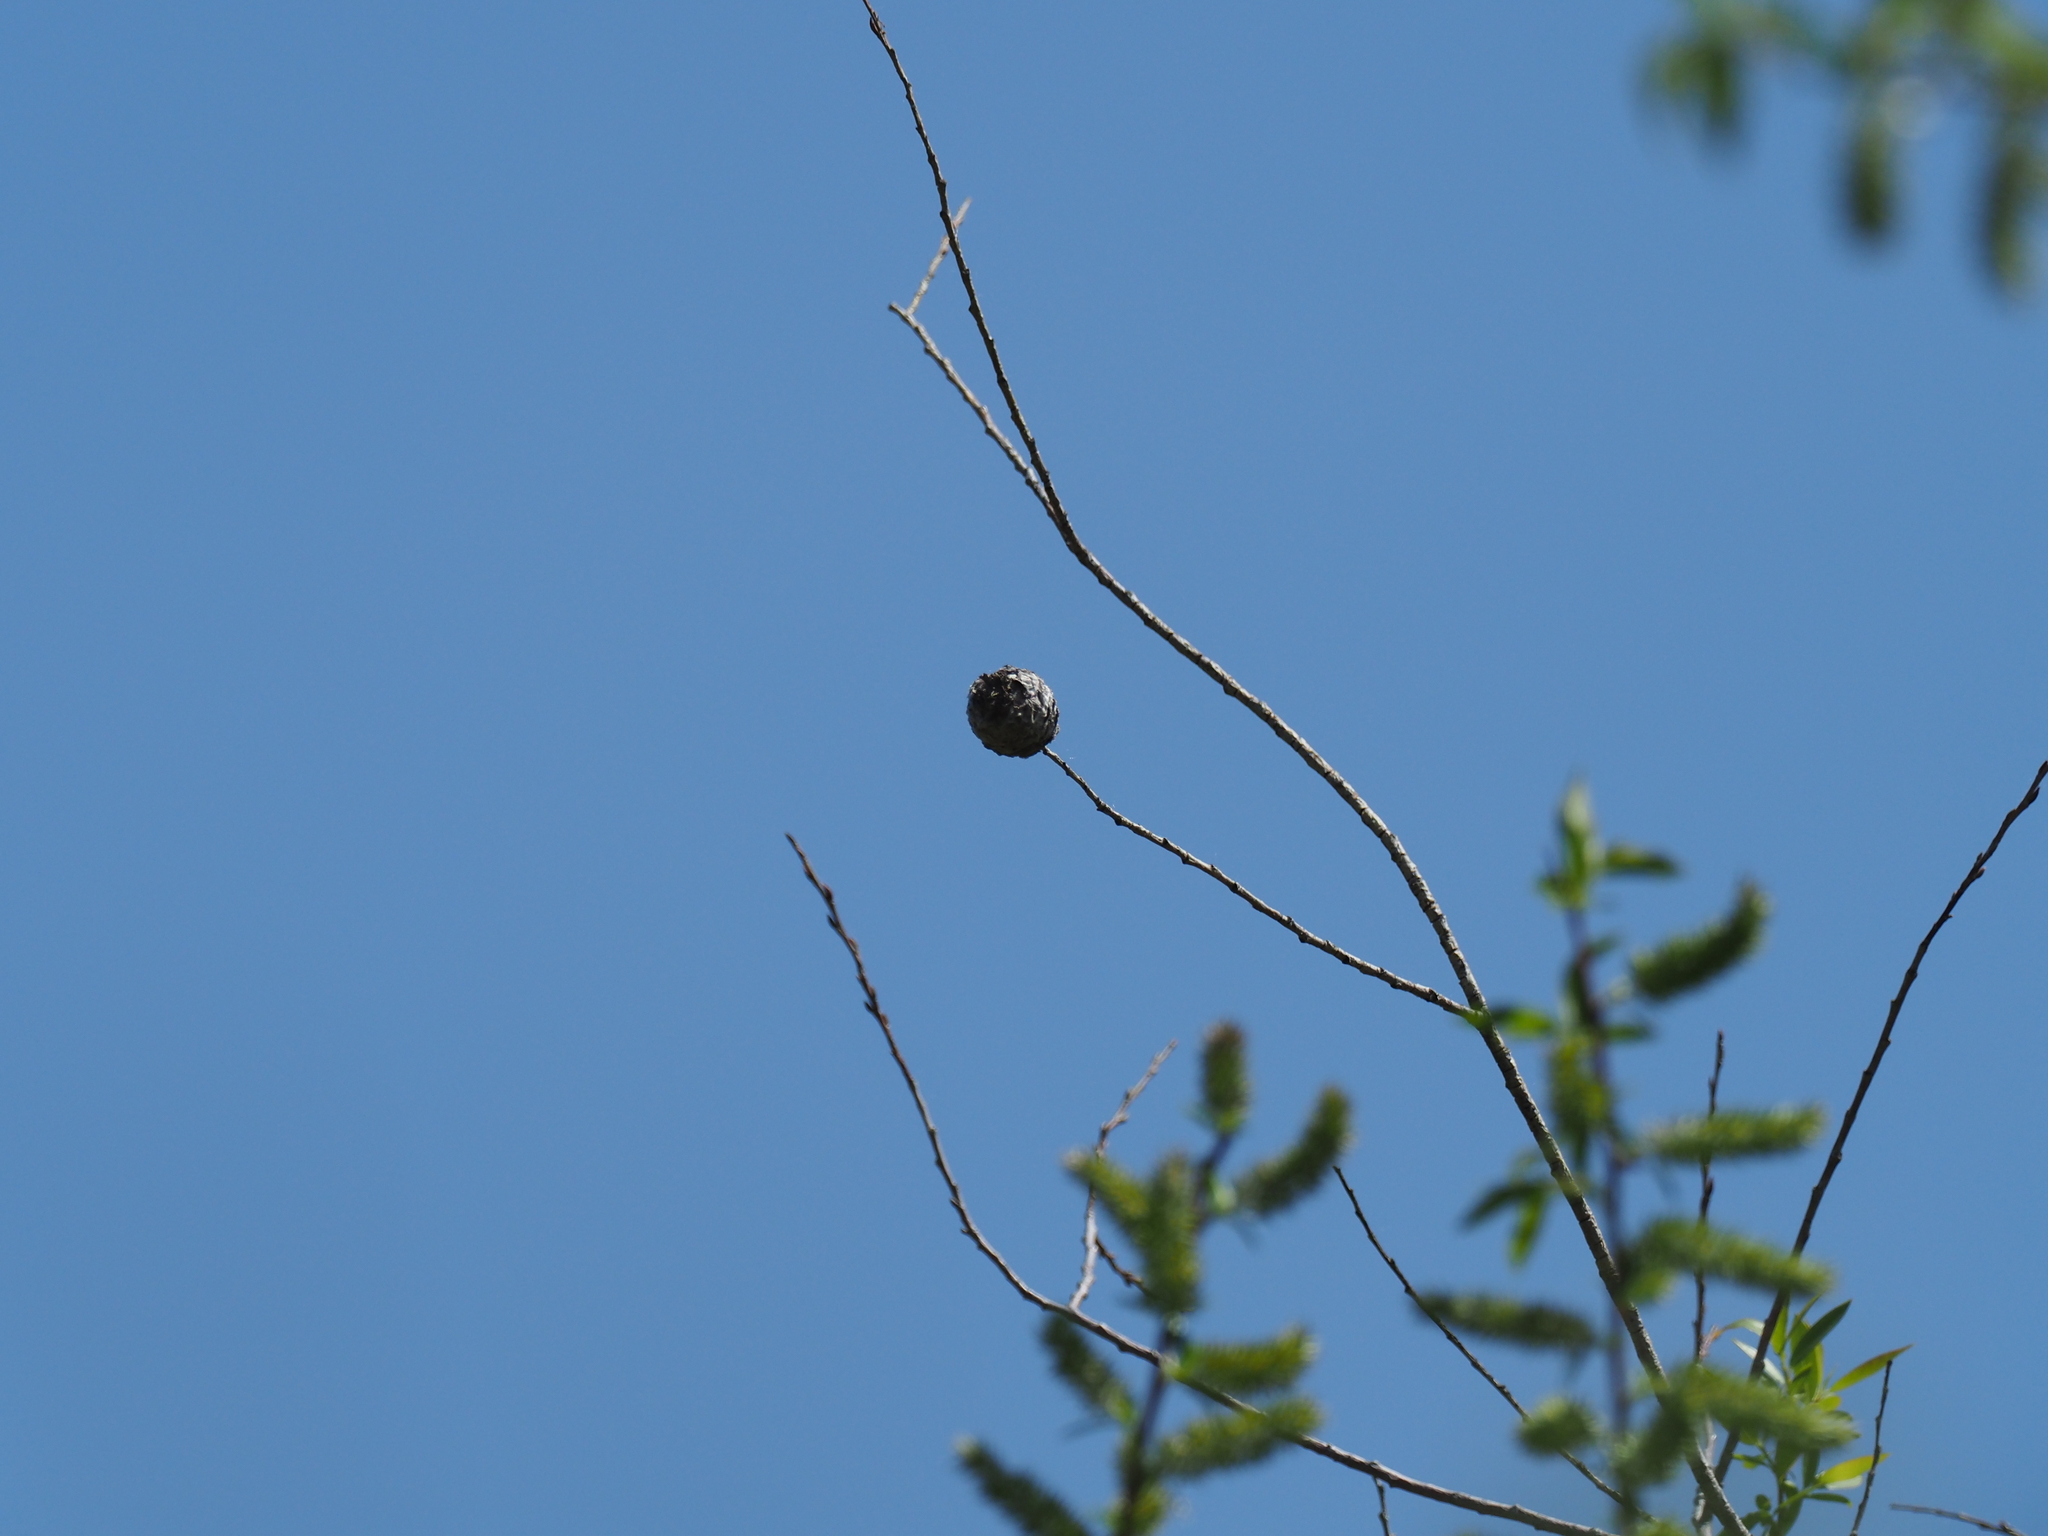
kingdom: Animalia
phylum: Arthropoda
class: Insecta
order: Diptera
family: Cecidomyiidae
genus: Rabdophaga
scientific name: Rabdophaga strobiloides
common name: Willow pinecone gall midge
